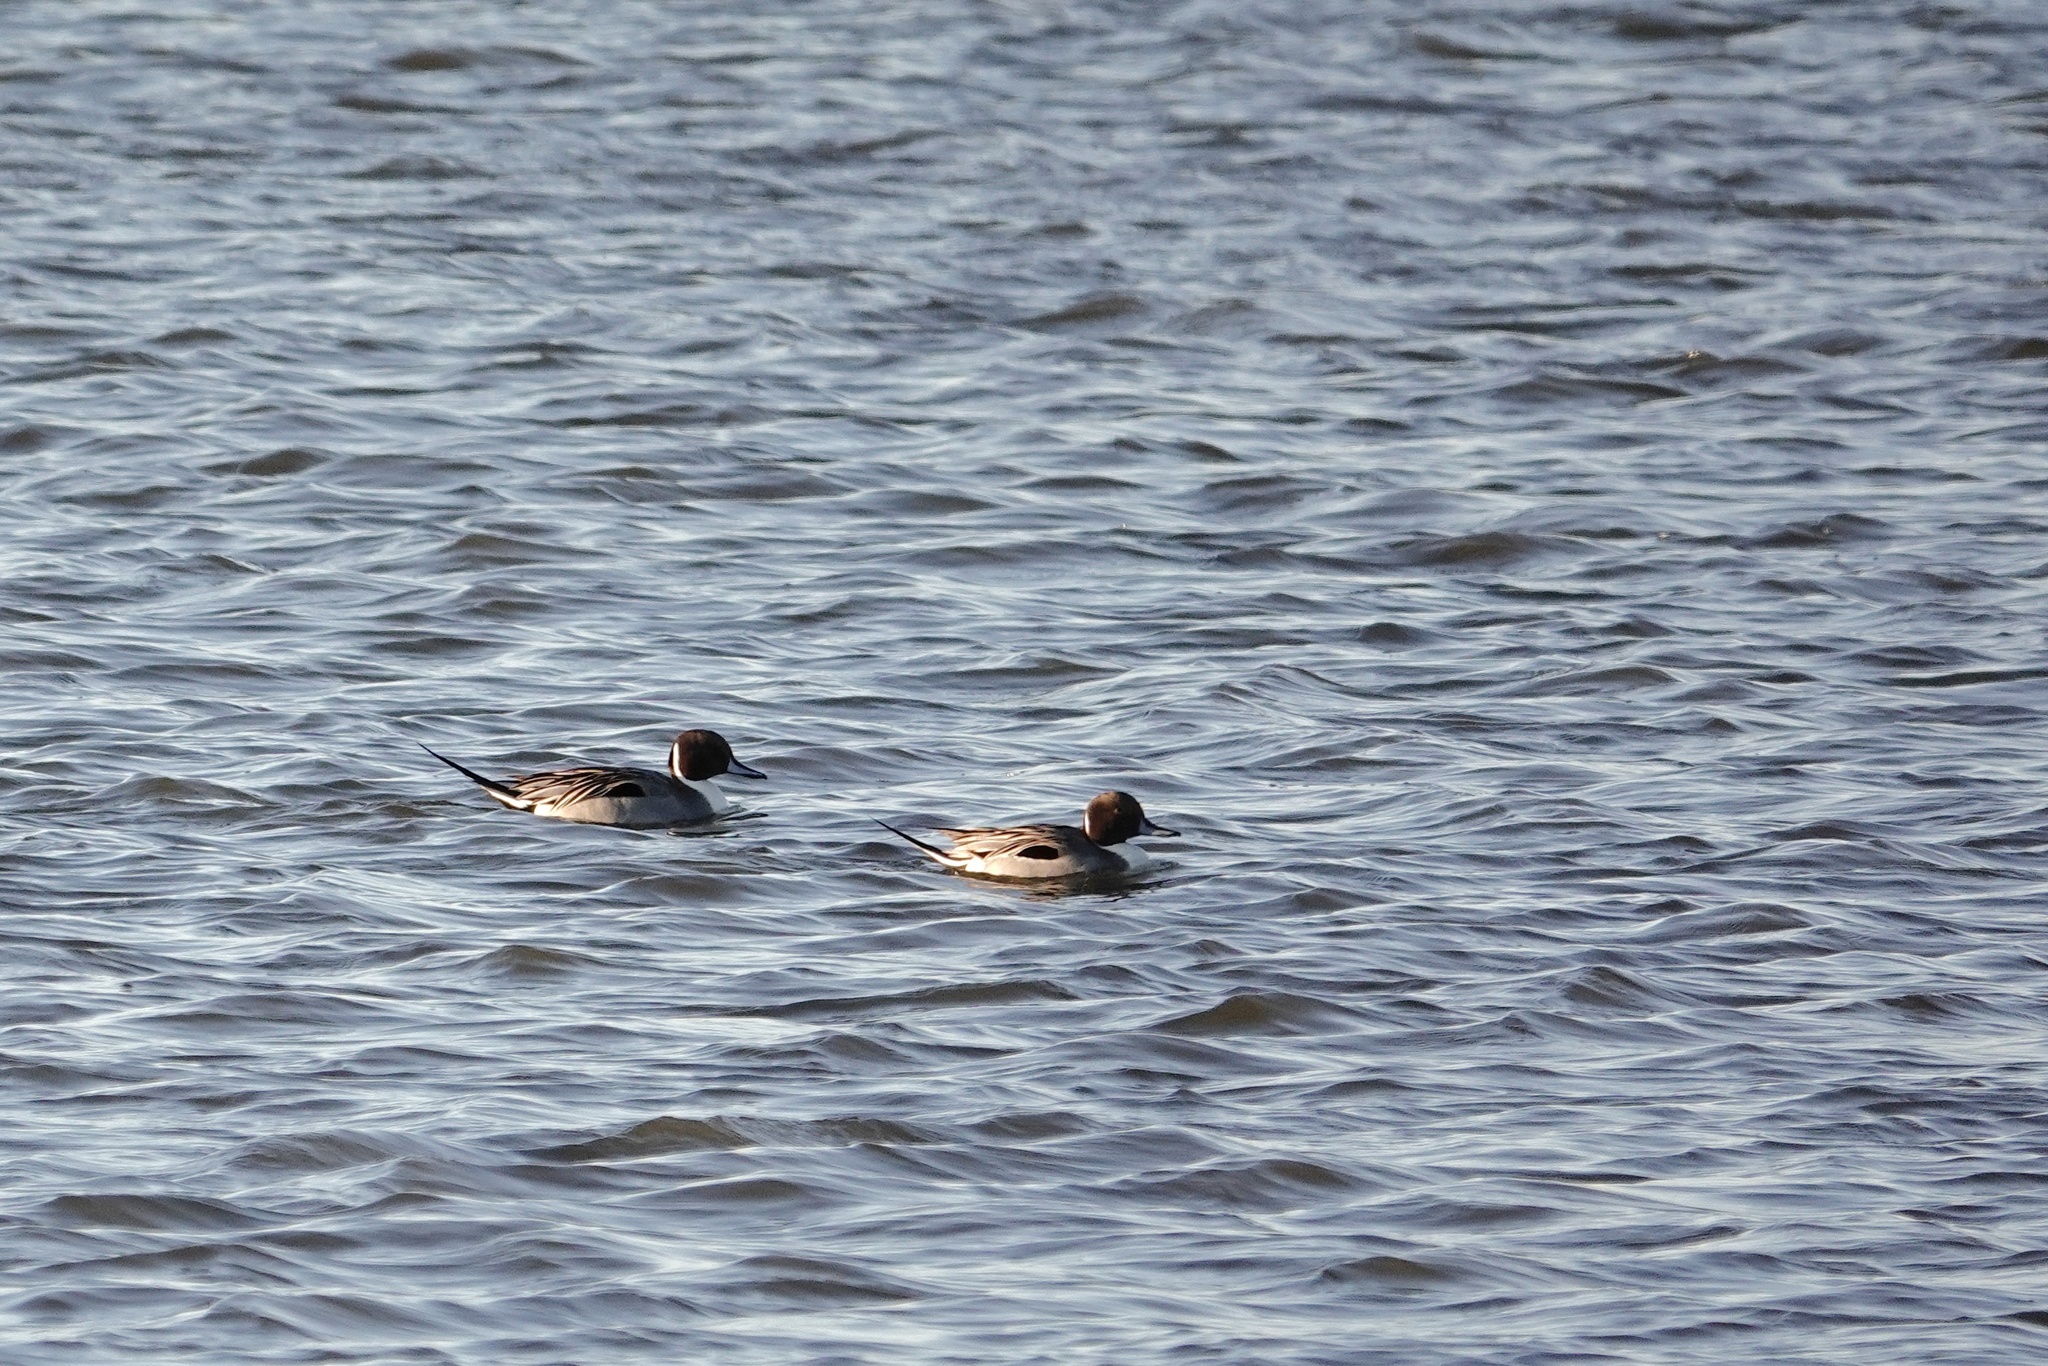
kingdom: Animalia
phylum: Chordata
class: Aves
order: Anseriformes
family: Anatidae
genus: Anas
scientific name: Anas acuta
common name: Northern pintail
